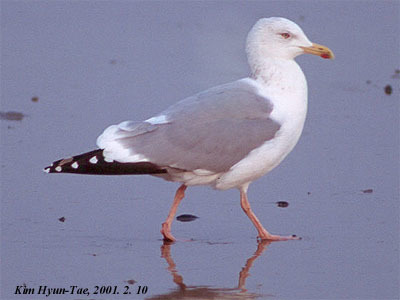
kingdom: Animalia
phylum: Chordata
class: Aves
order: Charadriiformes
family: Laridae
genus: Larus
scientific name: Larus vegae
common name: Vega gull
